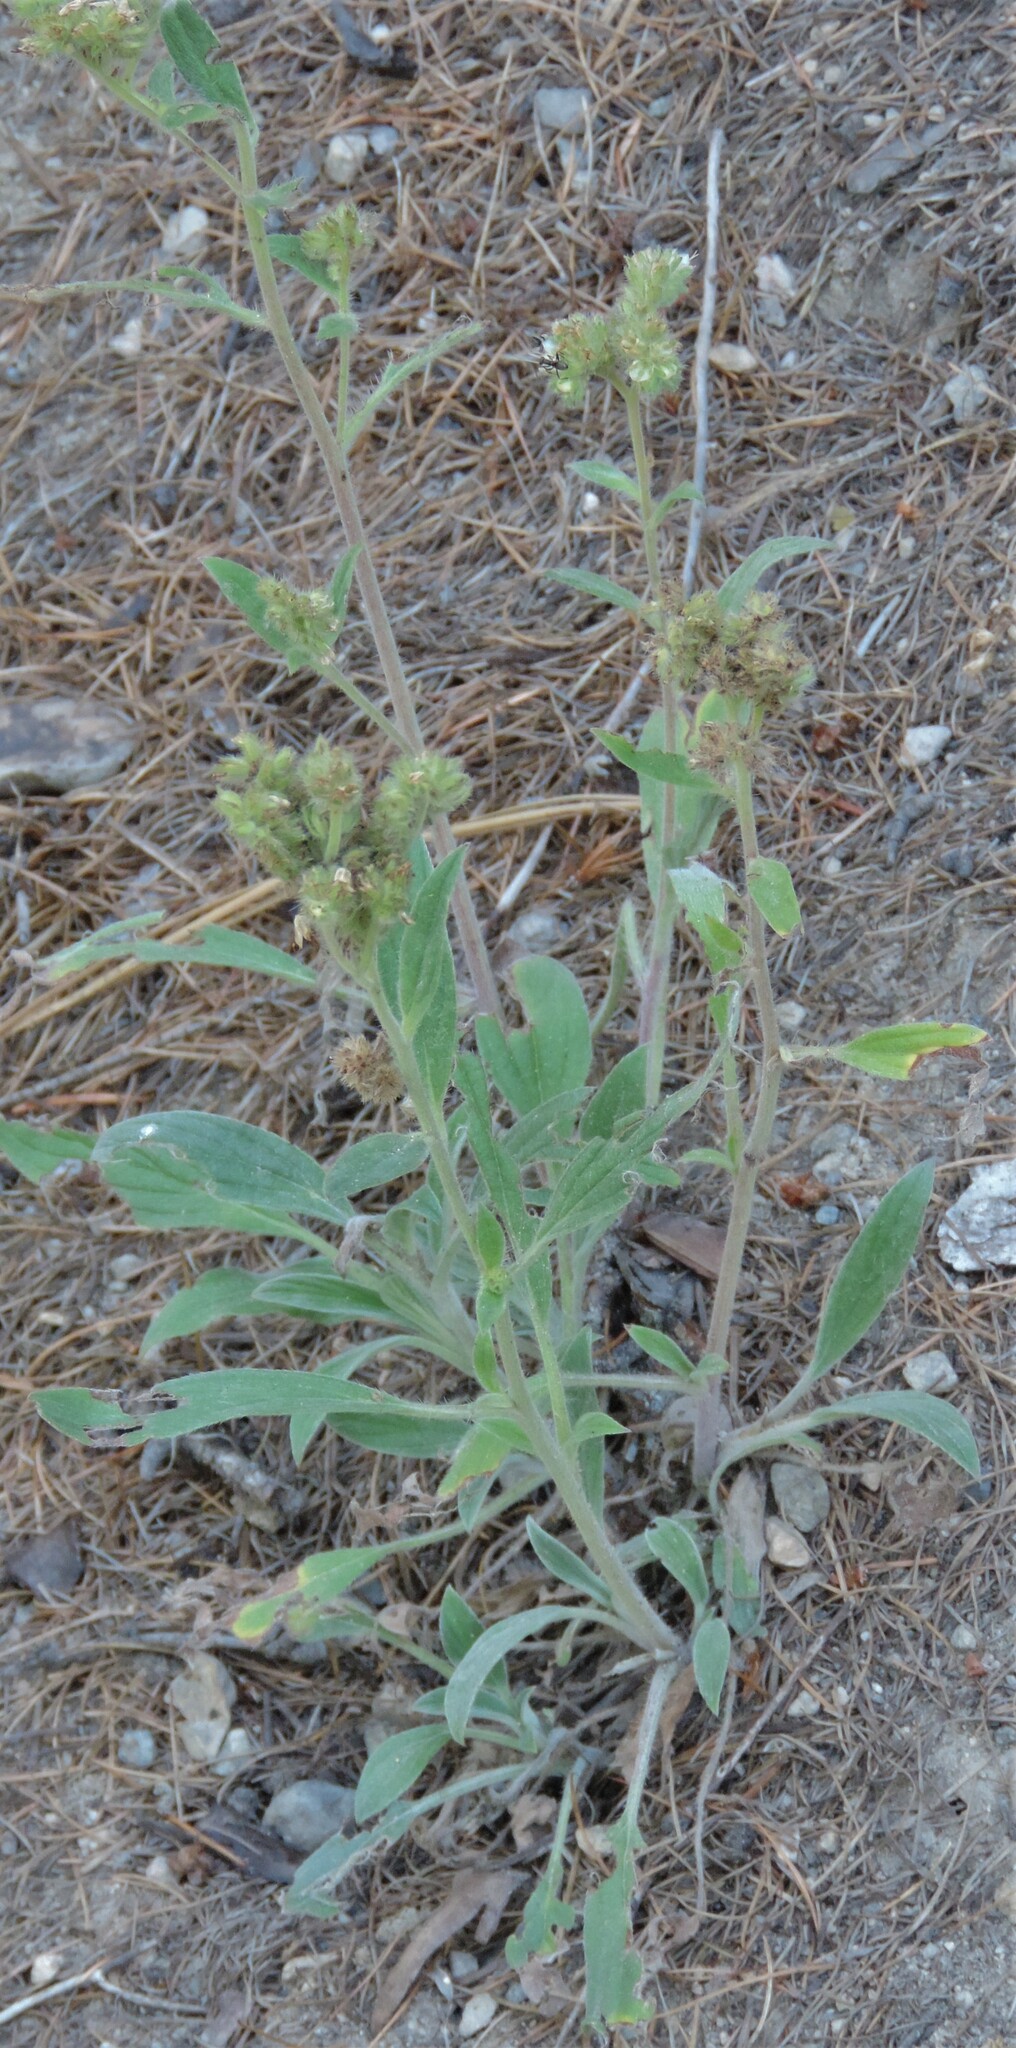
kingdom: Plantae
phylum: Tracheophyta
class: Magnoliopsida
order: Boraginales
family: Hydrophyllaceae
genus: Phacelia
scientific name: Phacelia hastata
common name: Silver-leaved phacelia
